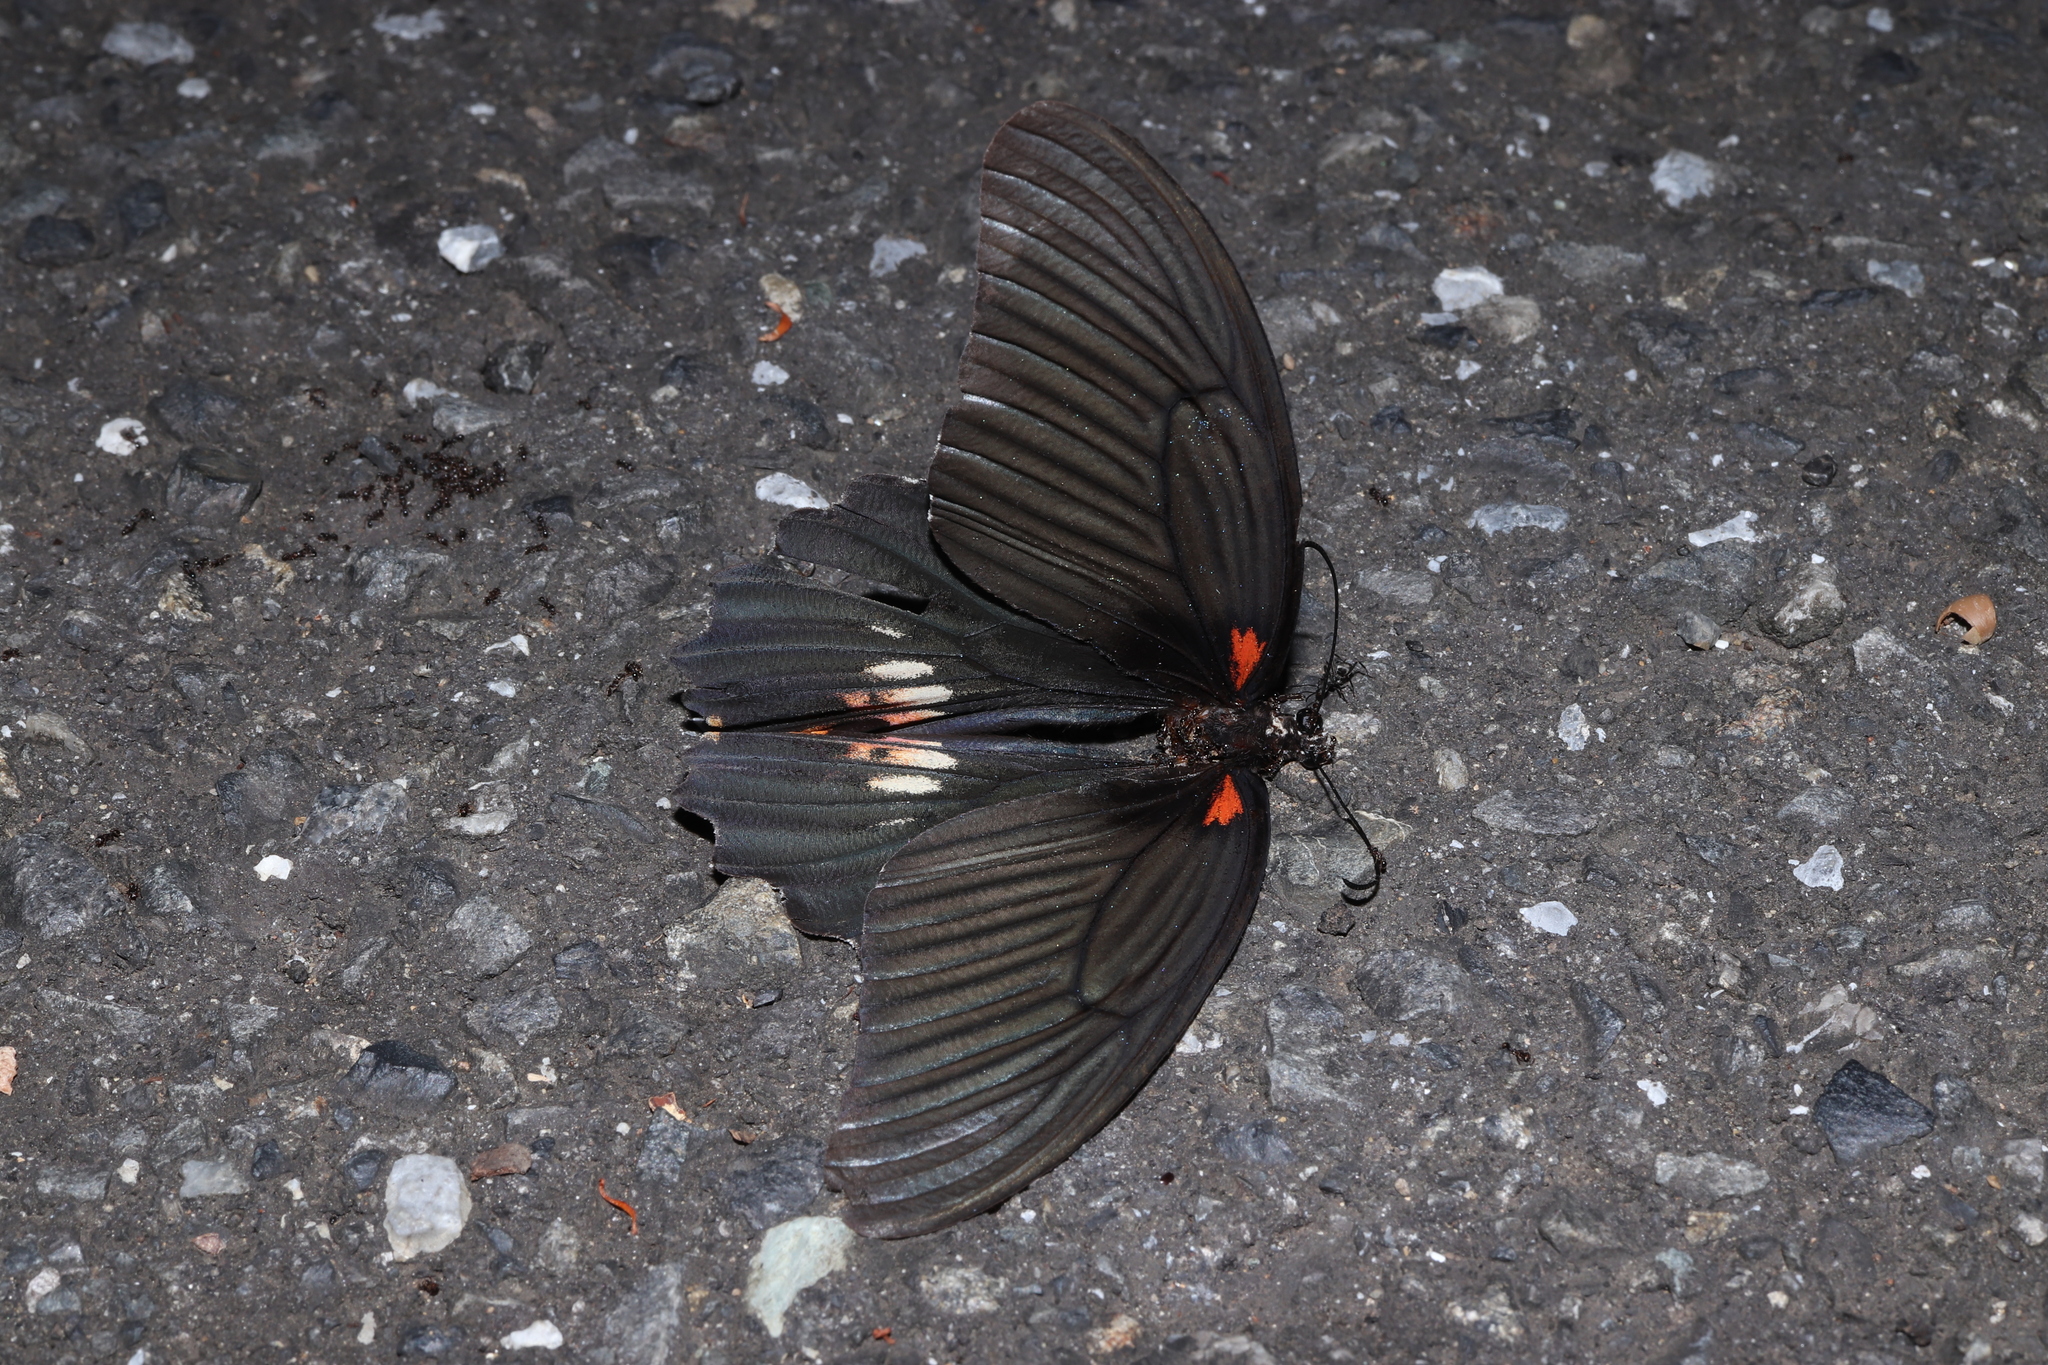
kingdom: Animalia
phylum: Arthropoda
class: Insecta
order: Lepidoptera
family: Papilionidae
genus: Papilio
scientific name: Papilio memnon
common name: Great mormon
